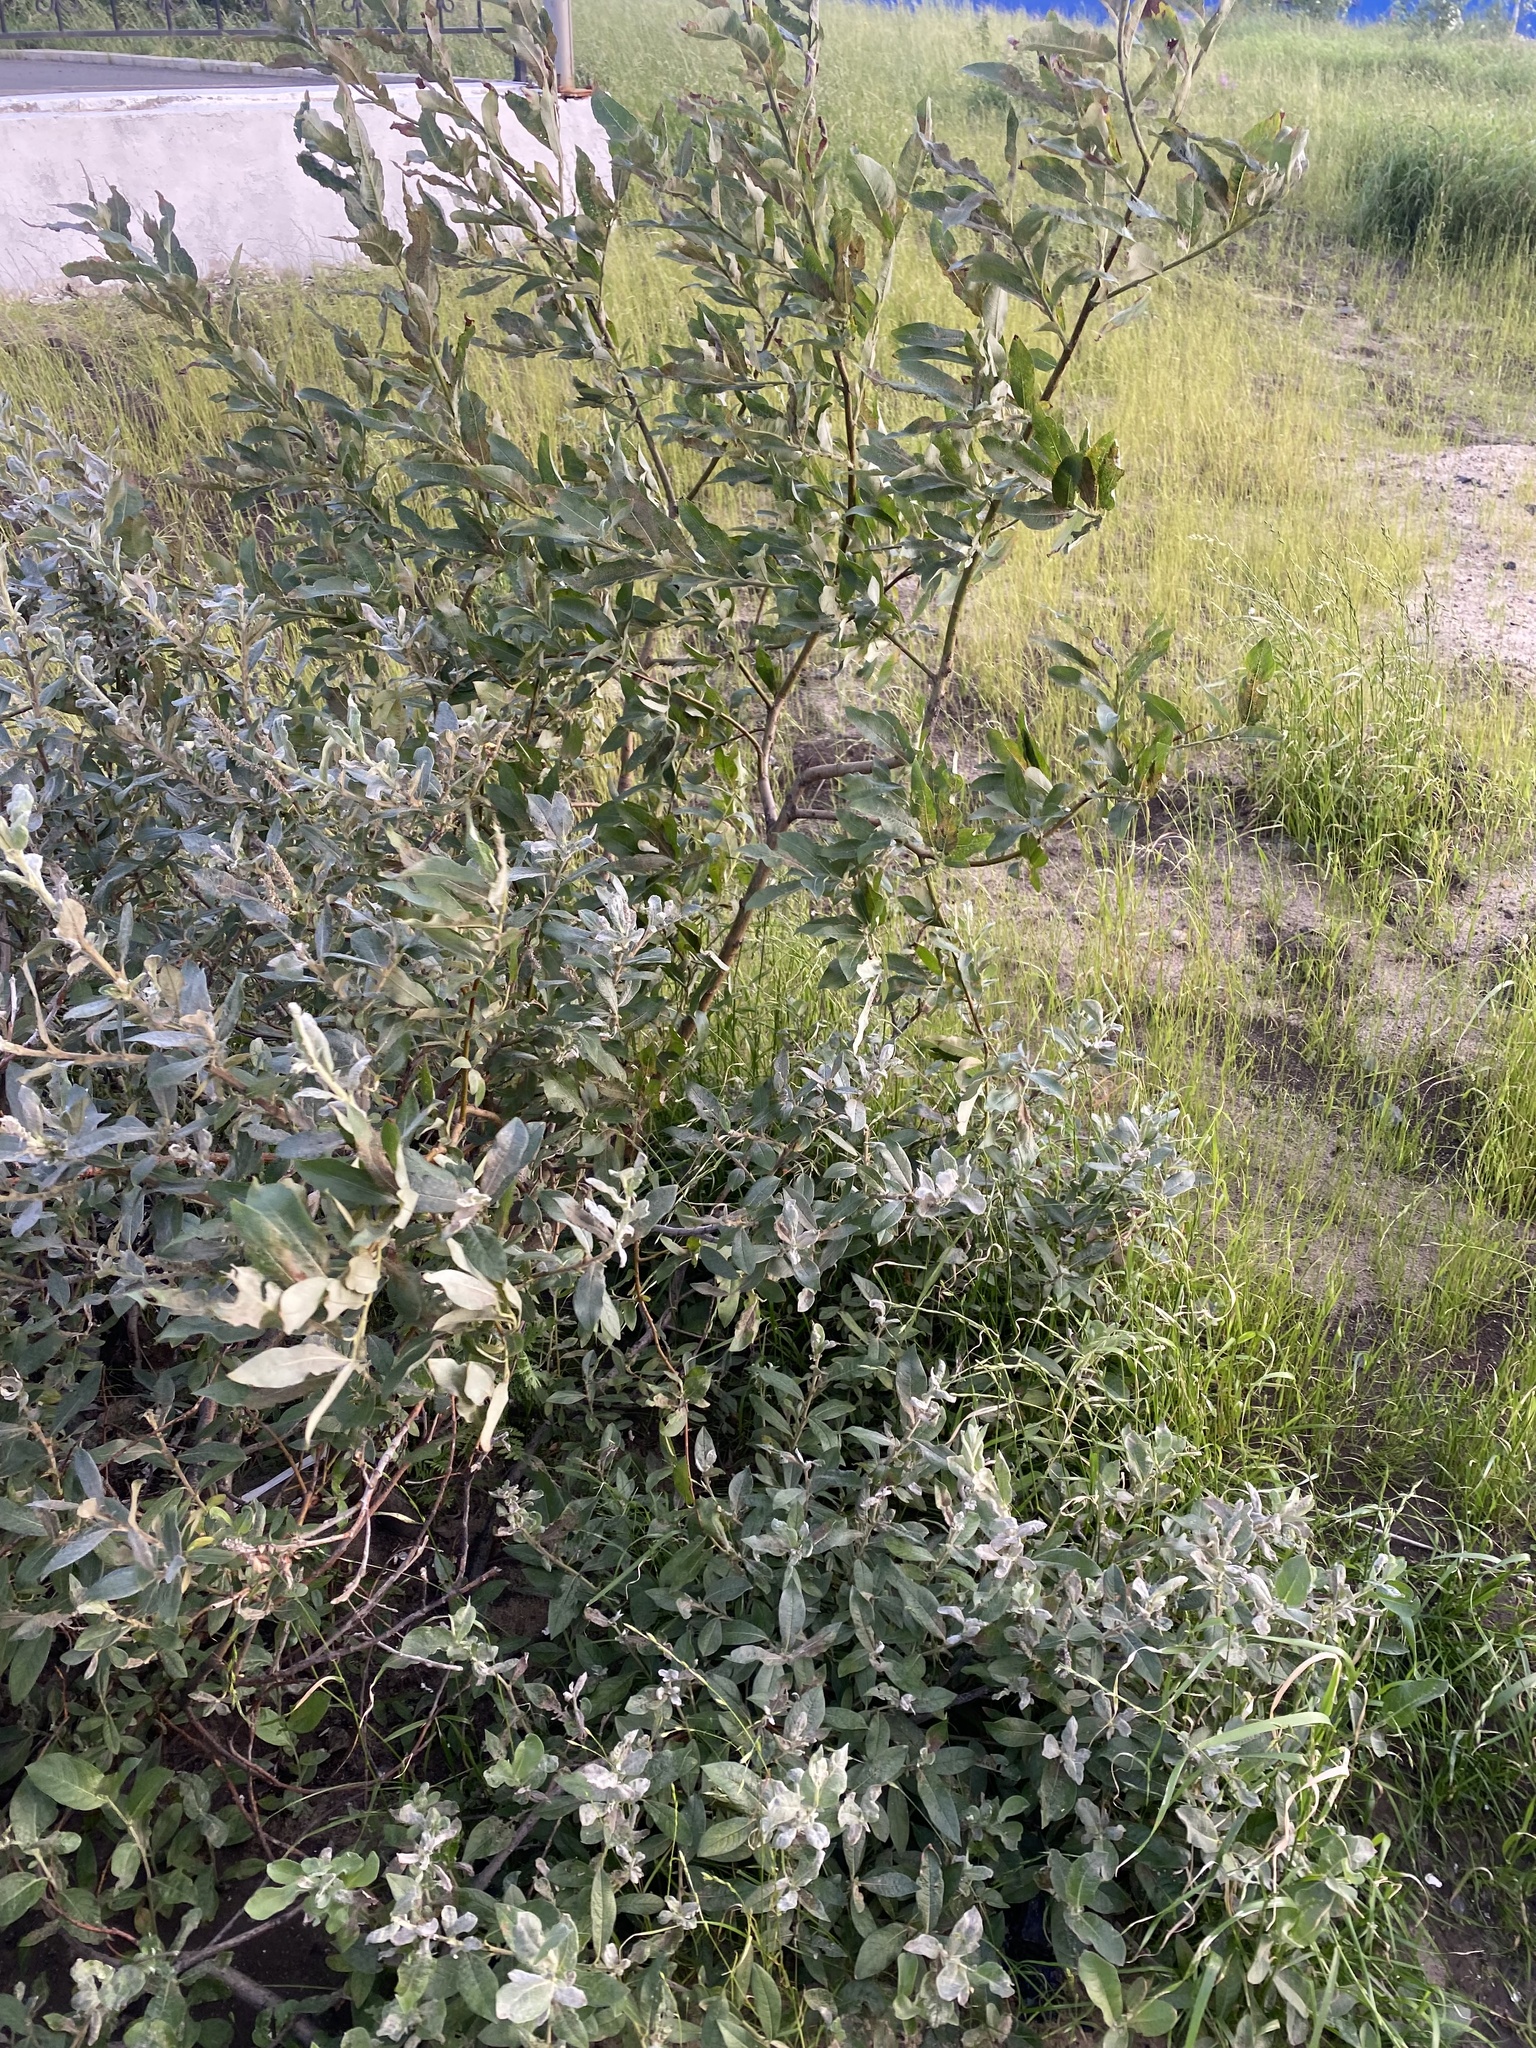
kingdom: Plantae
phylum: Tracheophyta
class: Magnoliopsida
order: Malpighiales
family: Salicaceae
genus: Salix
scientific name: Salix glauca
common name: Glaucous willow
